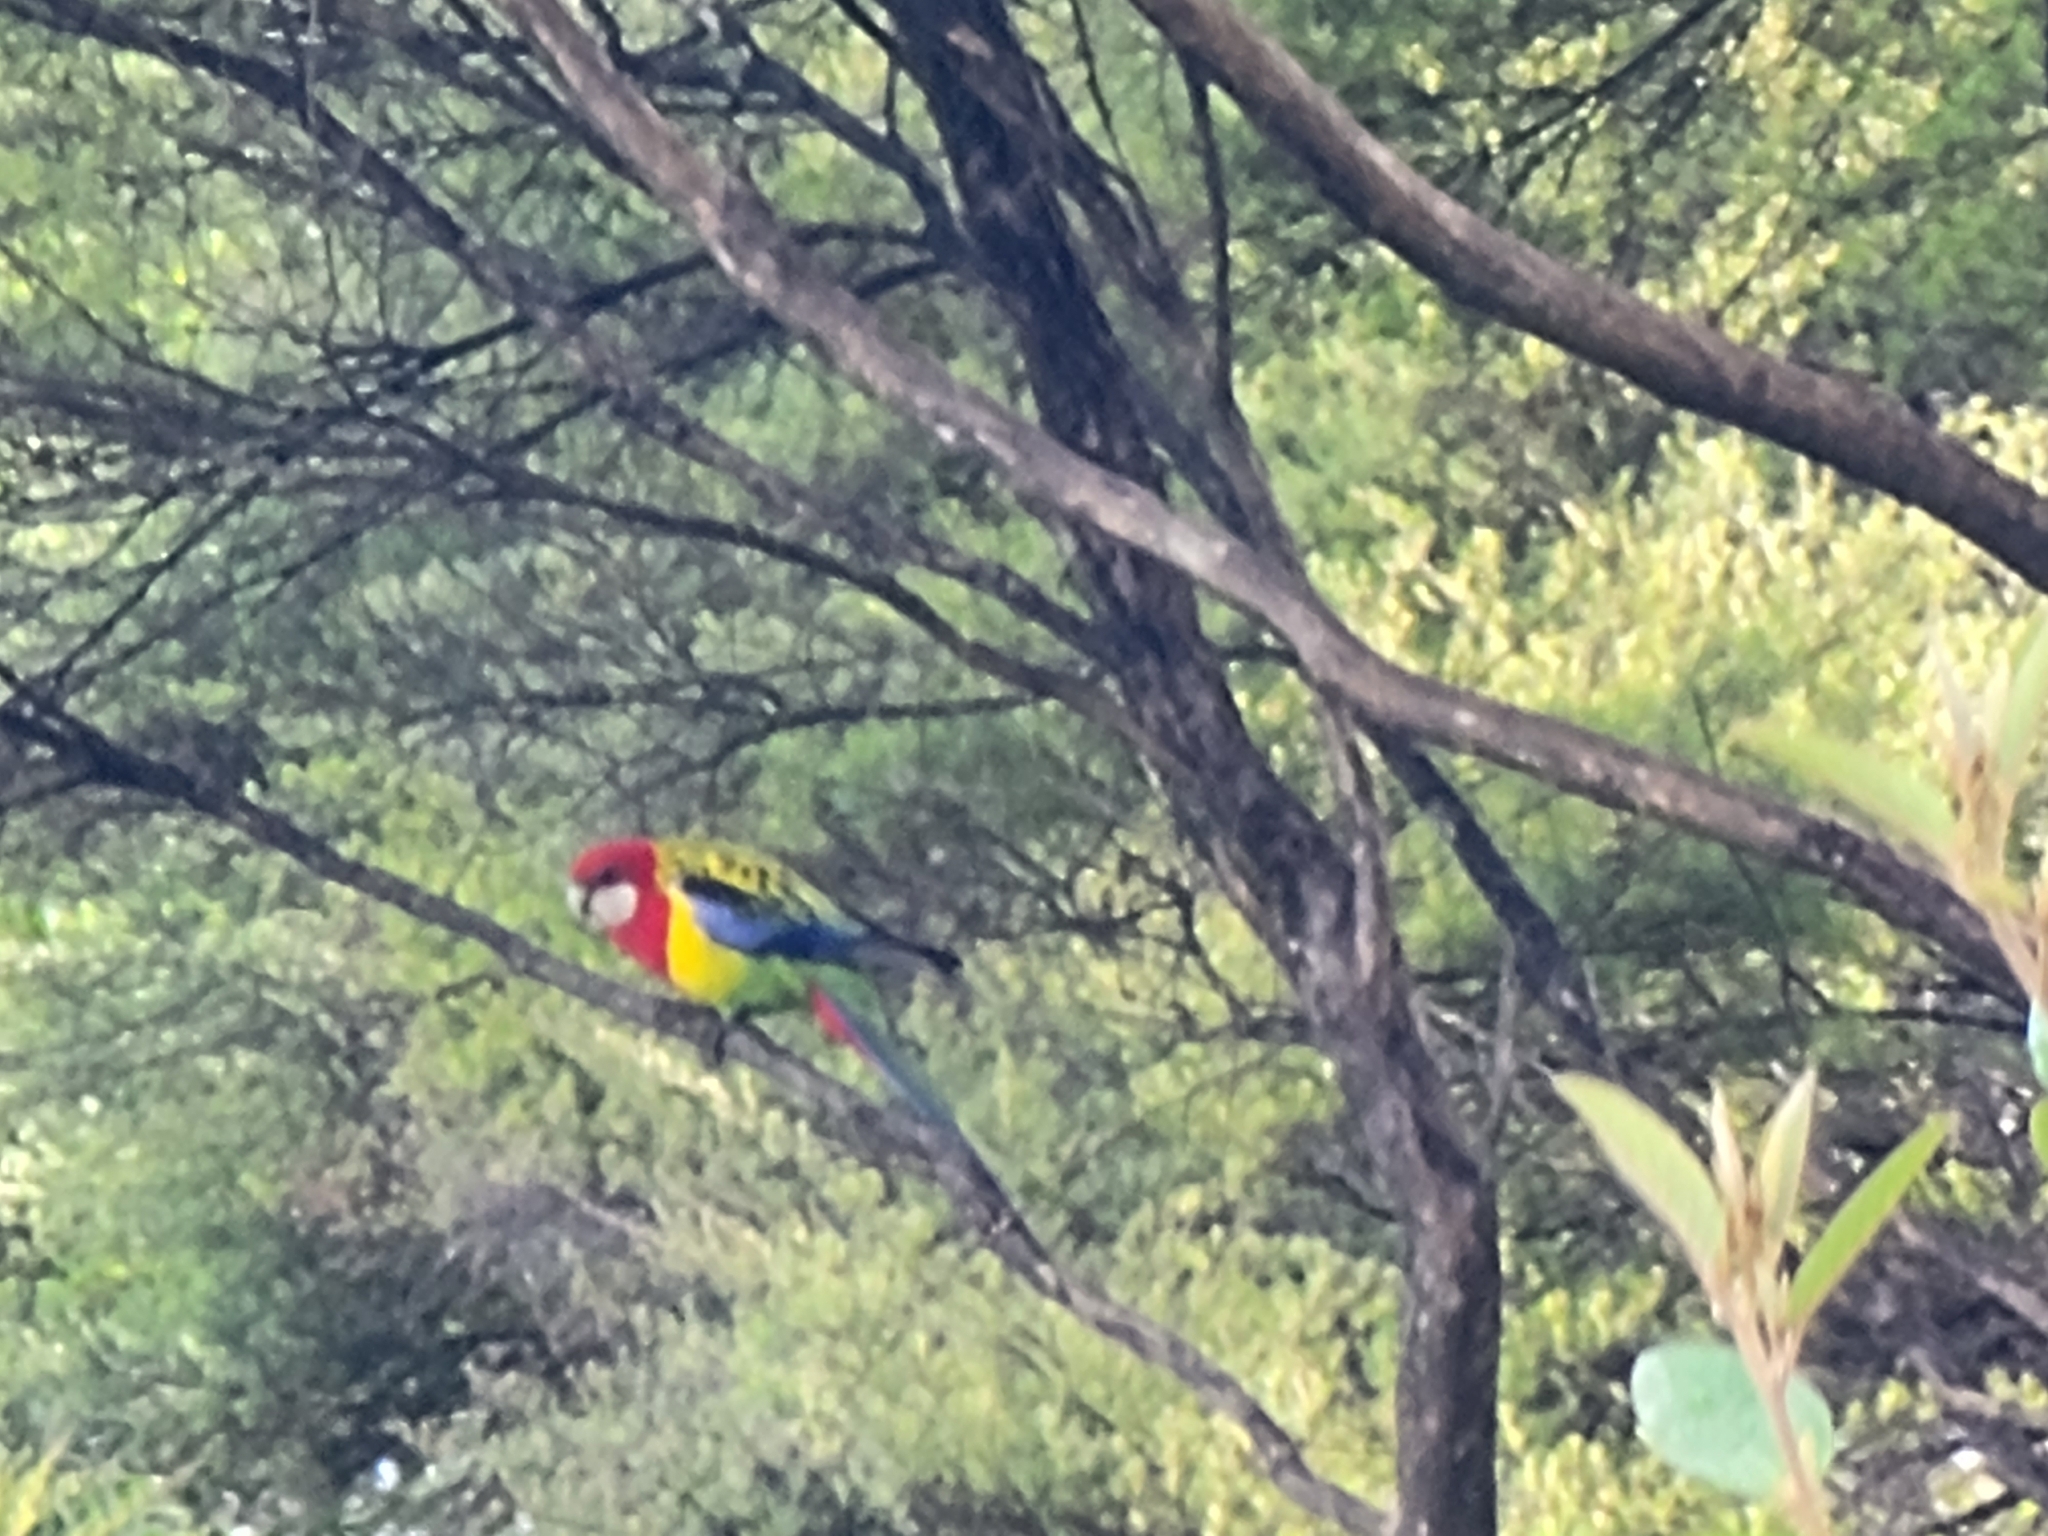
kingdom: Animalia
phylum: Chordata
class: Aves
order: Psittaciformes
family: Psittacidae
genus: Platycercus
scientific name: Platycercus eximius
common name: Eastern rosella
